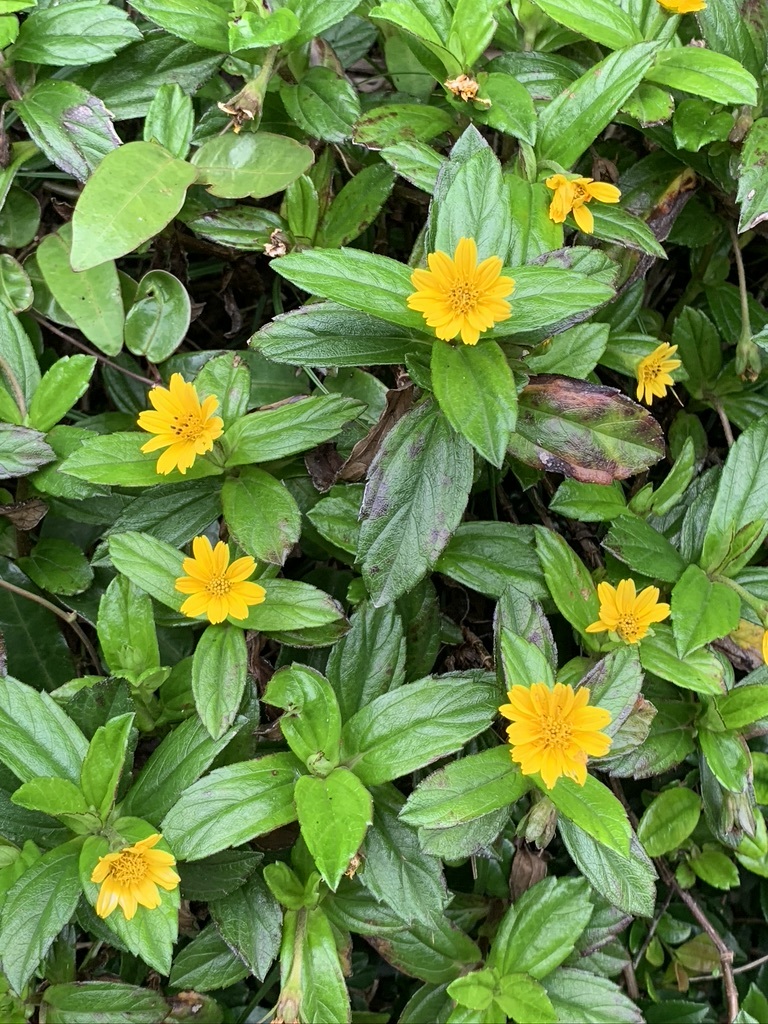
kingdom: Plantae
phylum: Tracheophyta
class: Magnoliopsida
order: Asterales
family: Asteraceae
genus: Sphagneticola
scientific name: Sphagneticola trilobata
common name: Bay biscayne creeping-oxeye
